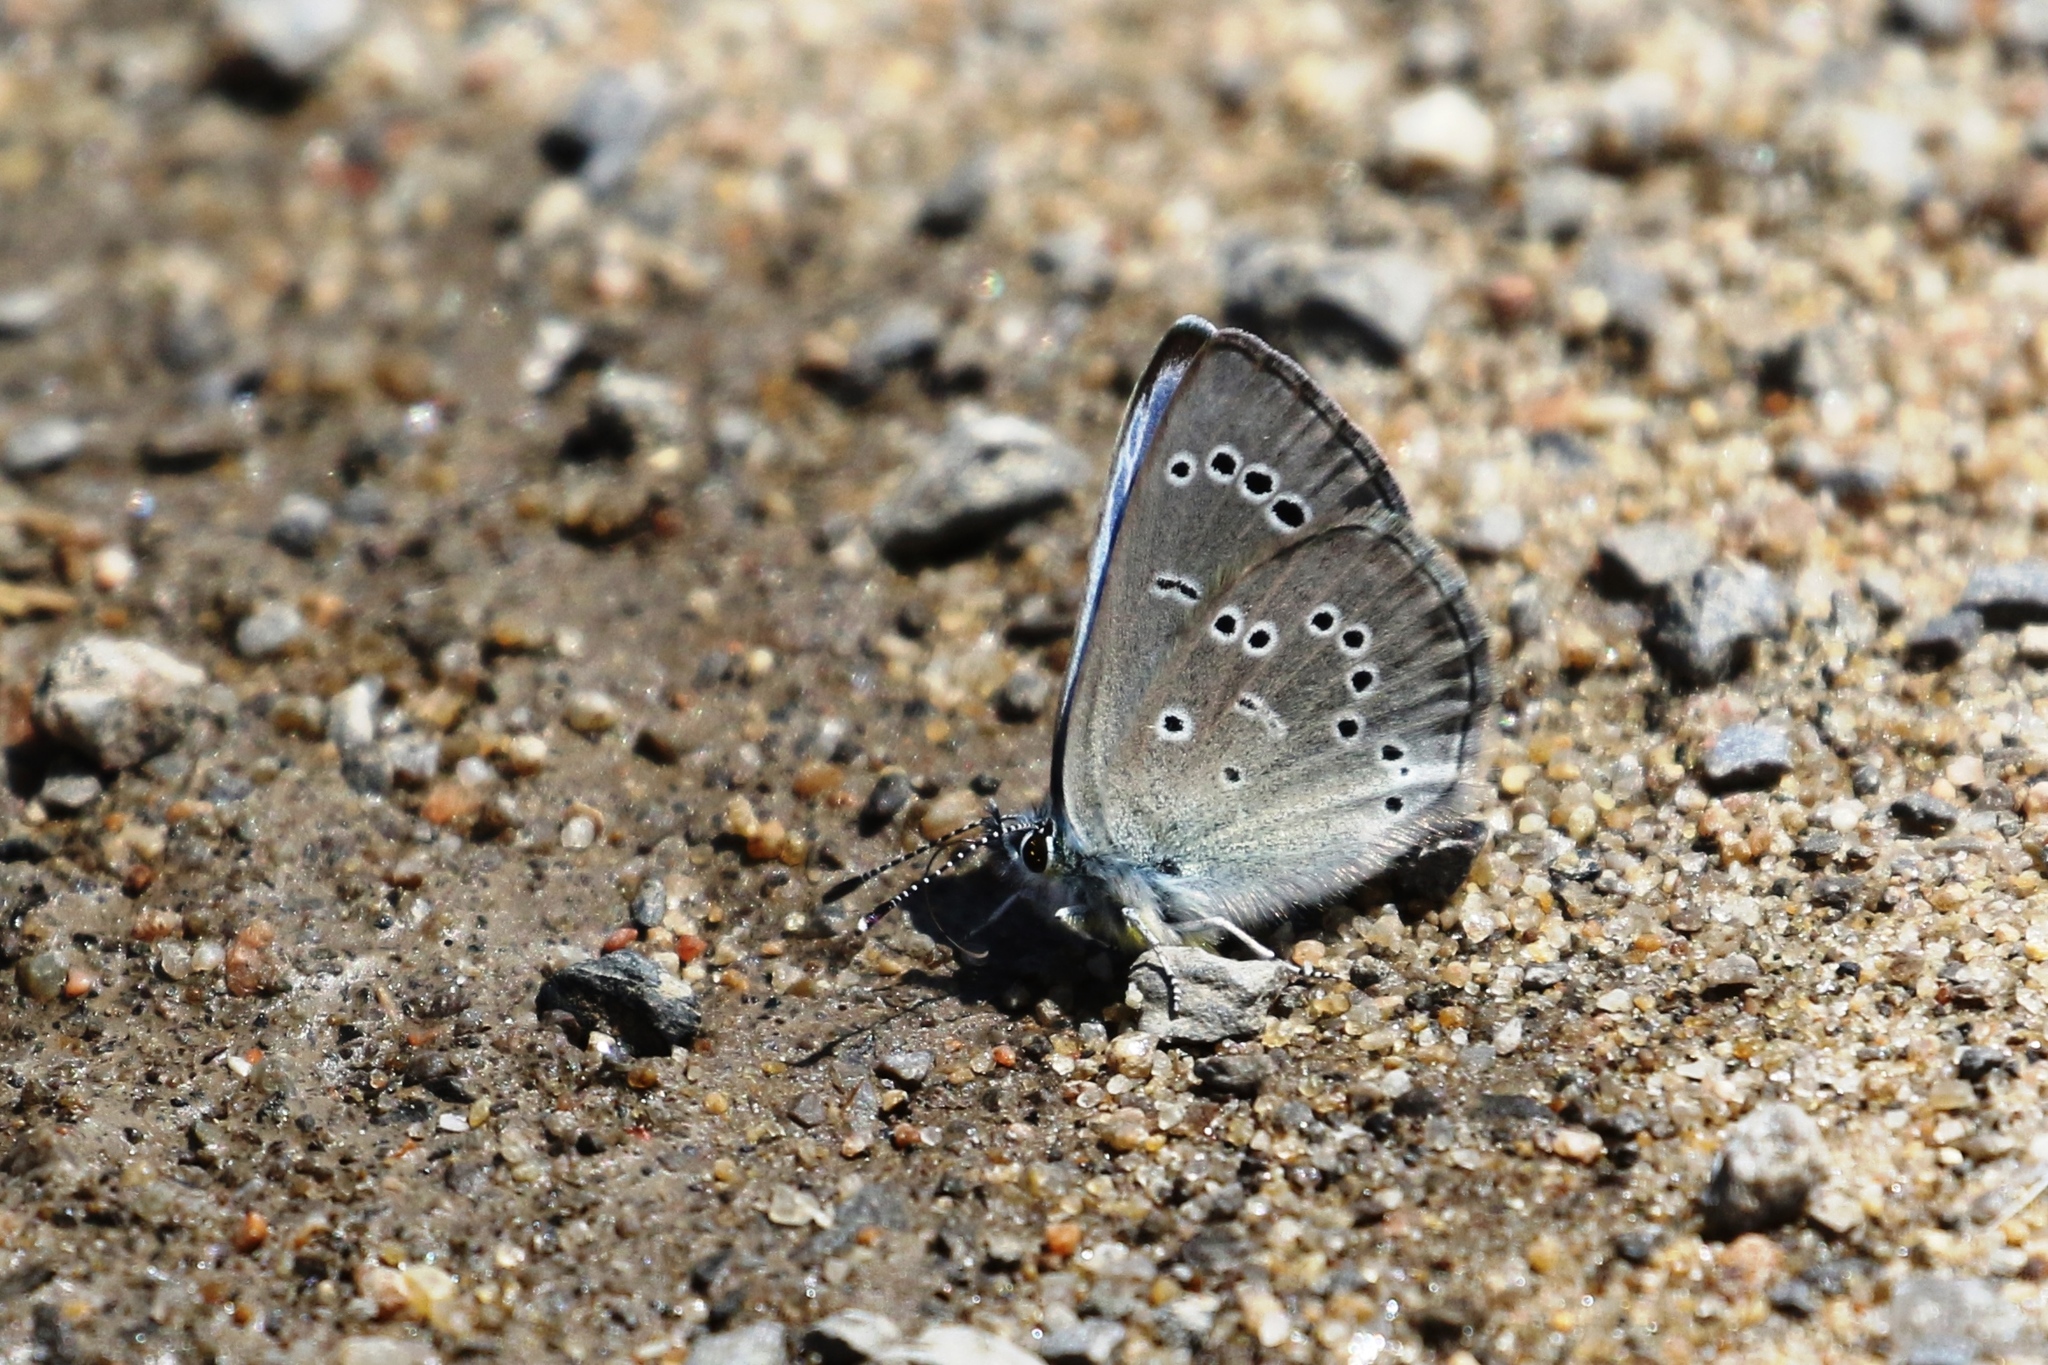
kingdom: Animalia
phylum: Arthropoda
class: Insecta
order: Lepidoptera
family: Lycaenidae
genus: Glaucopsyche
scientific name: Glaucopsyche lygdamus
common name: Silvery blue
